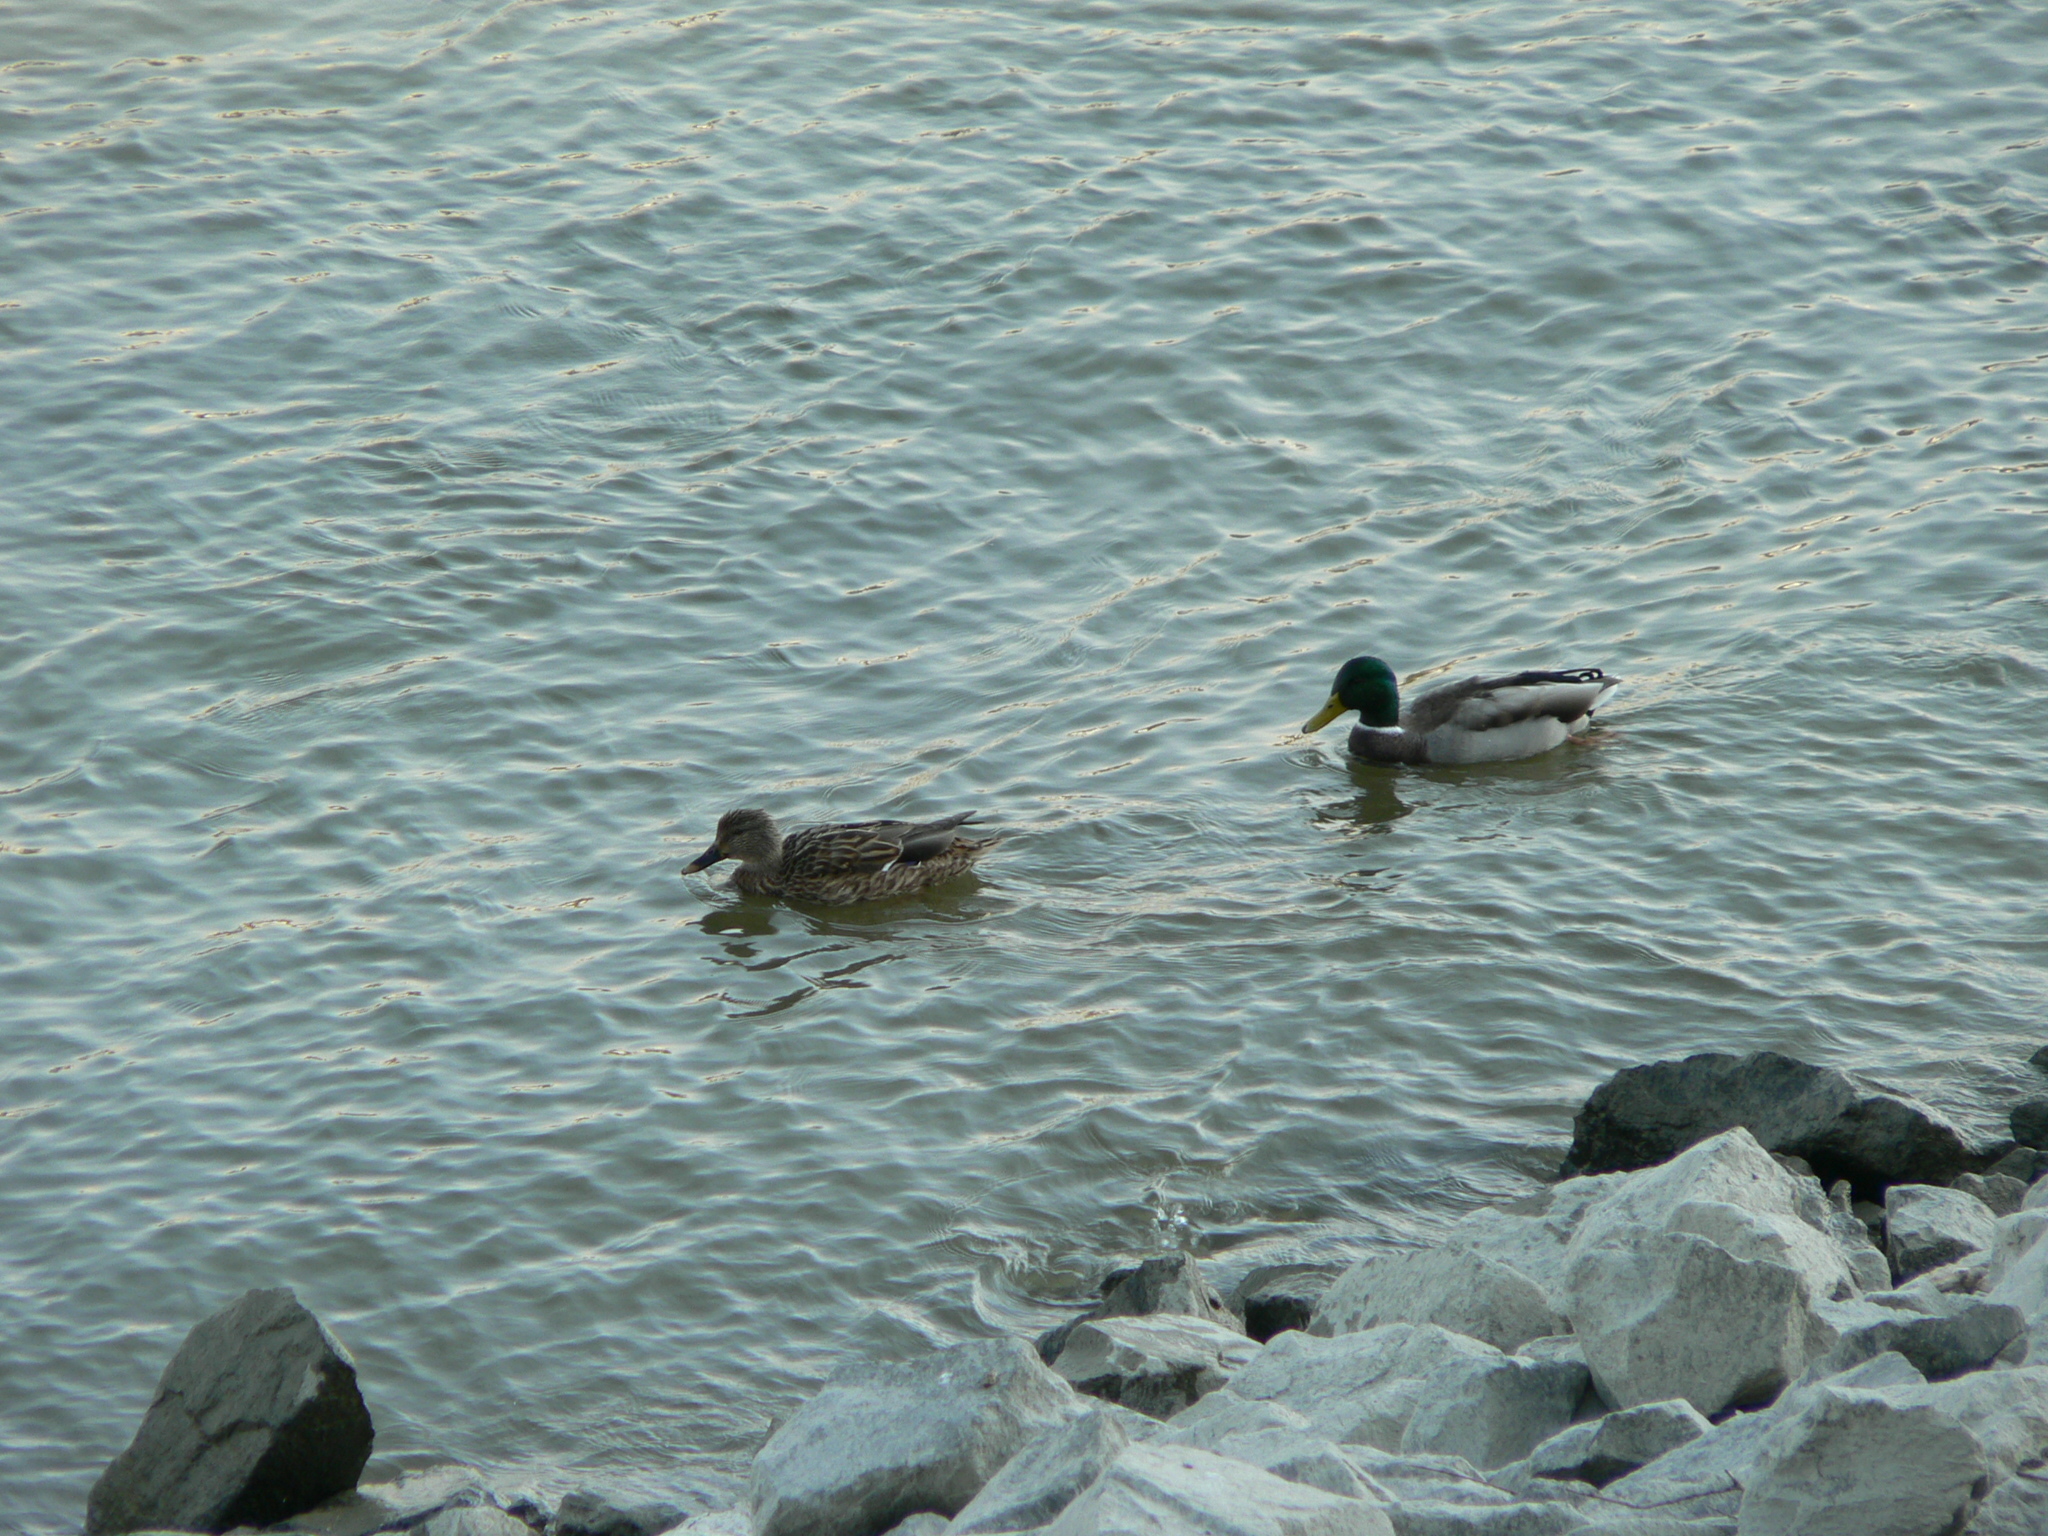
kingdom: Animalia
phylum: Chordata
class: Aves
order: Anseriformes
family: Anatidae
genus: Anas
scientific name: Anas platyrhynchos
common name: Mallard
